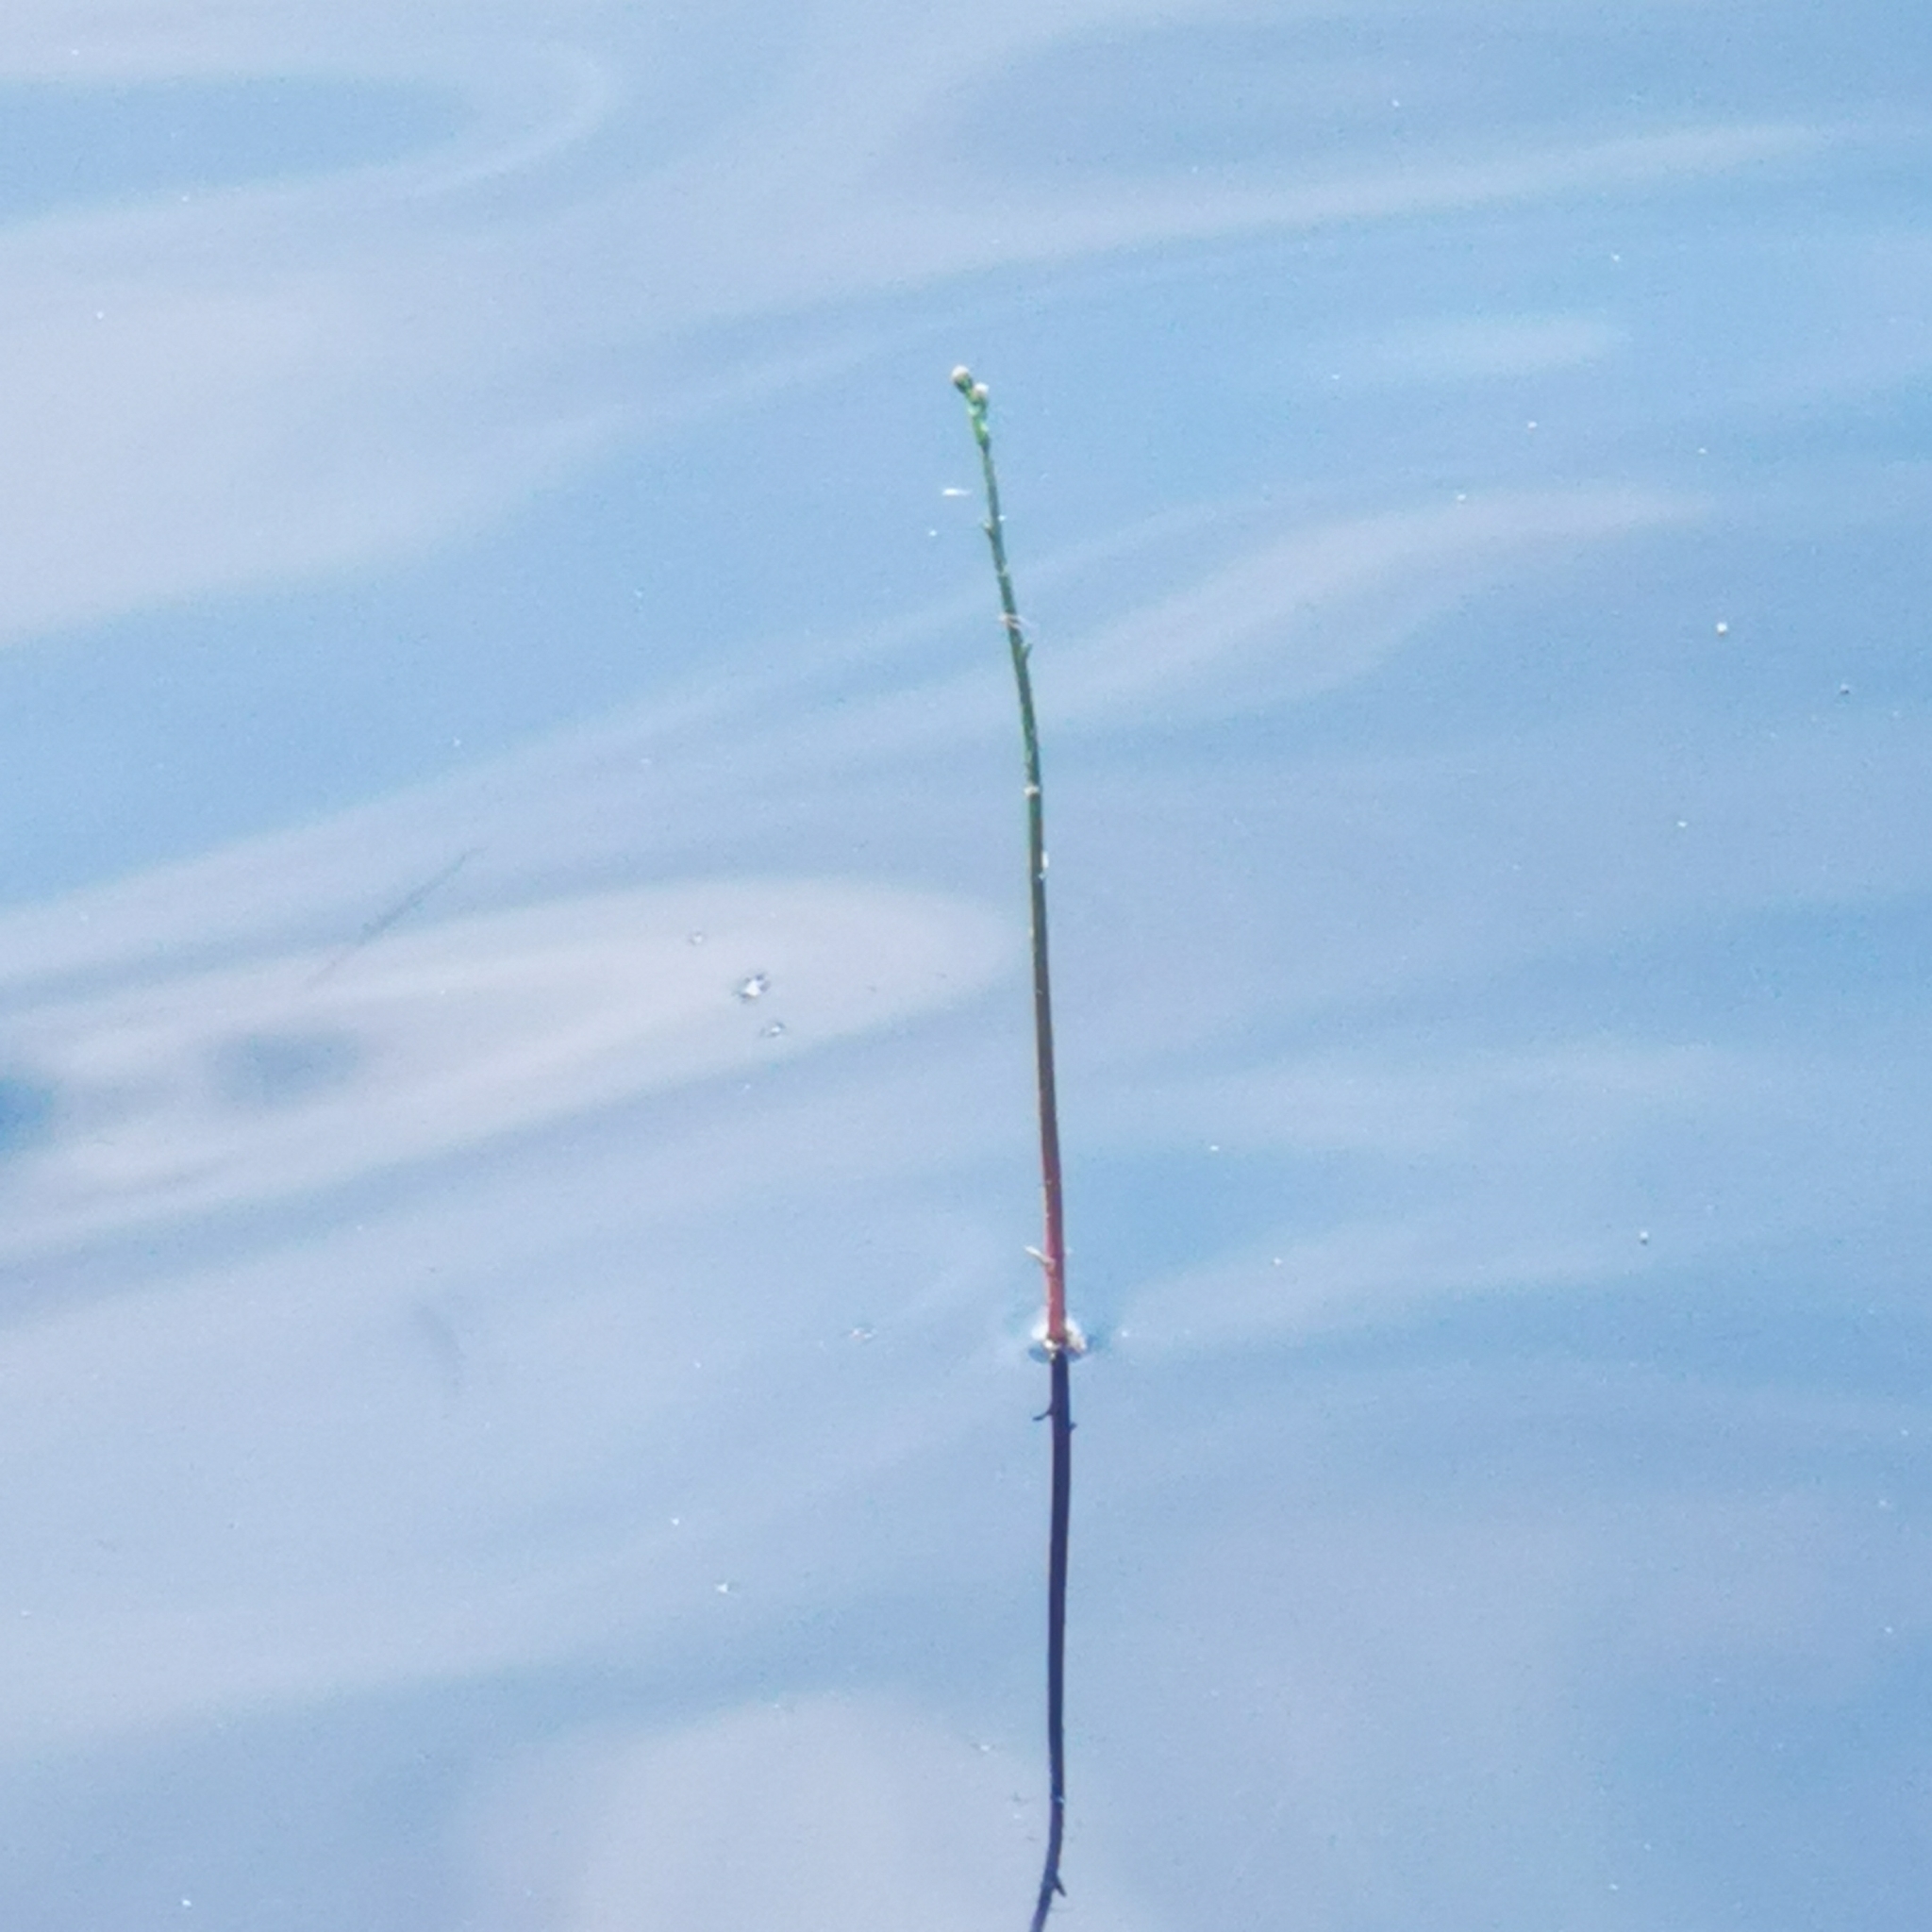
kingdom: Plantae
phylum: Tracheophyta
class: Magnoliopsida
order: Asterales
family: Campanulaceae
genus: Lobelia
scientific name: Lobelia dortmanna
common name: Water lobelia
